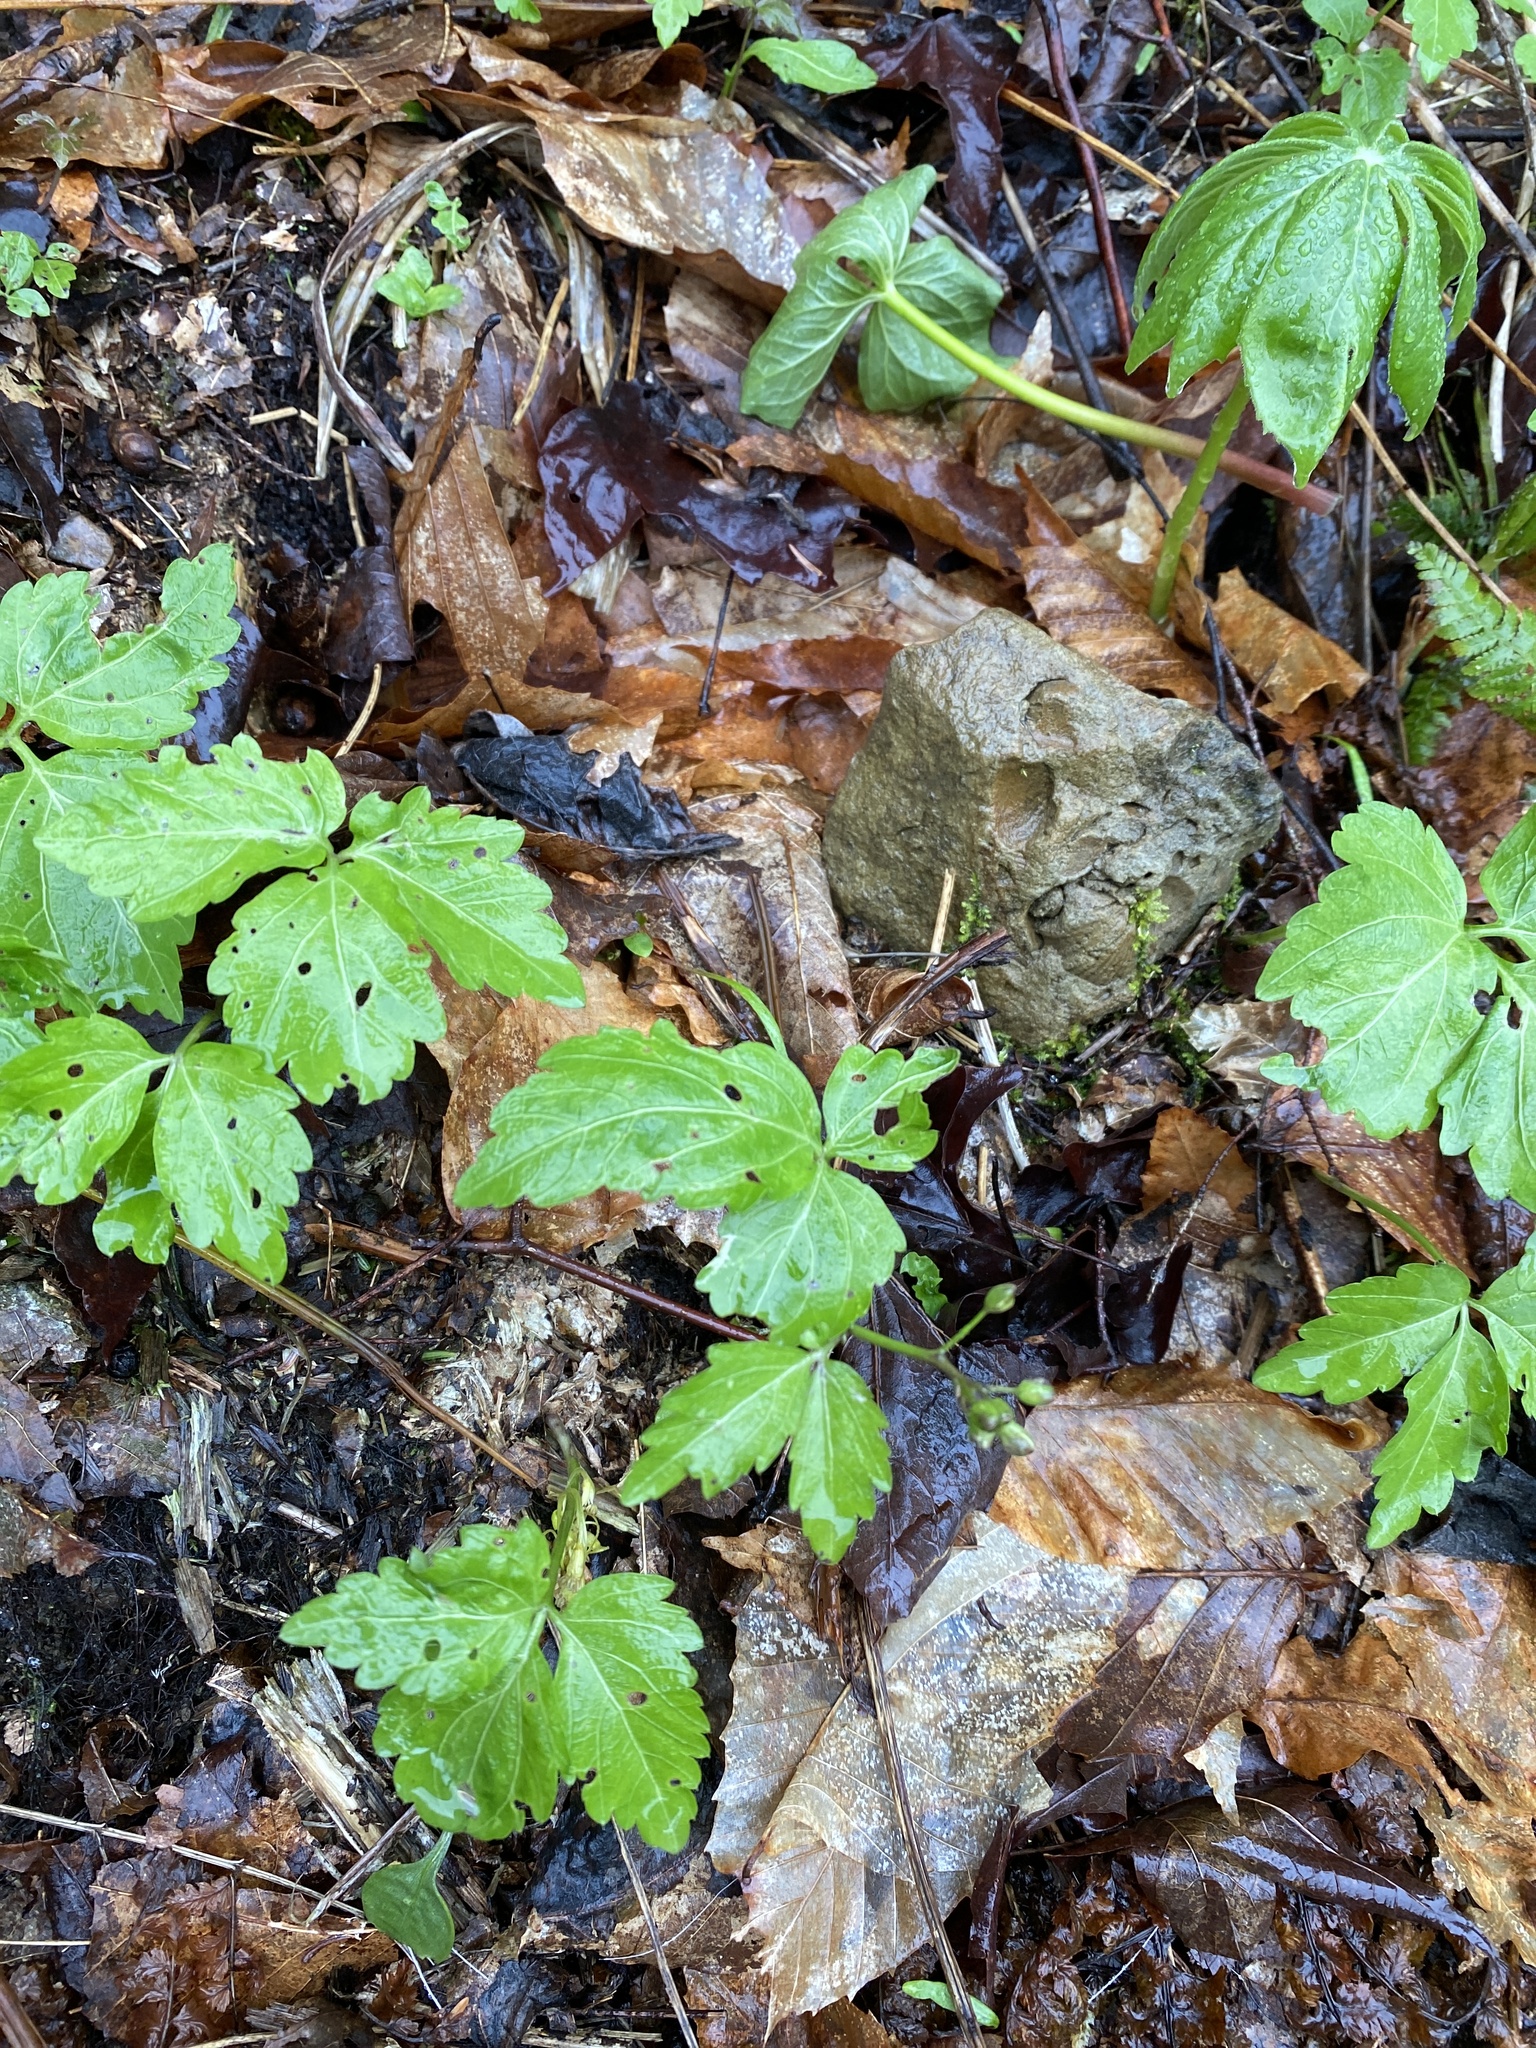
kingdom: Plantae
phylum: Tracheophyta
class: Magnoliopsida
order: Brassicales
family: Brassicaceae
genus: Cardamine
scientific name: Cardamine diphylla
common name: Broad-leaved toothwort
